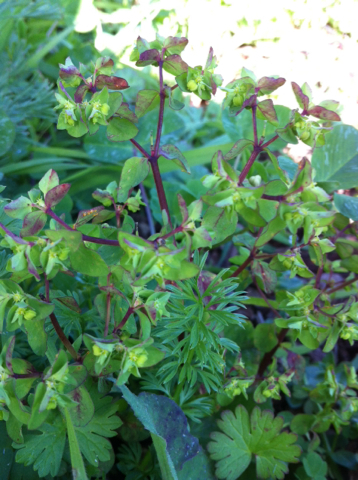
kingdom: Plantae
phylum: Tracheophyta
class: Magnoliopsida
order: Malpighiales
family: Euphorbiaceae
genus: Euphorbia
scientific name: Euphorbia peplus
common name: Petty spurge
